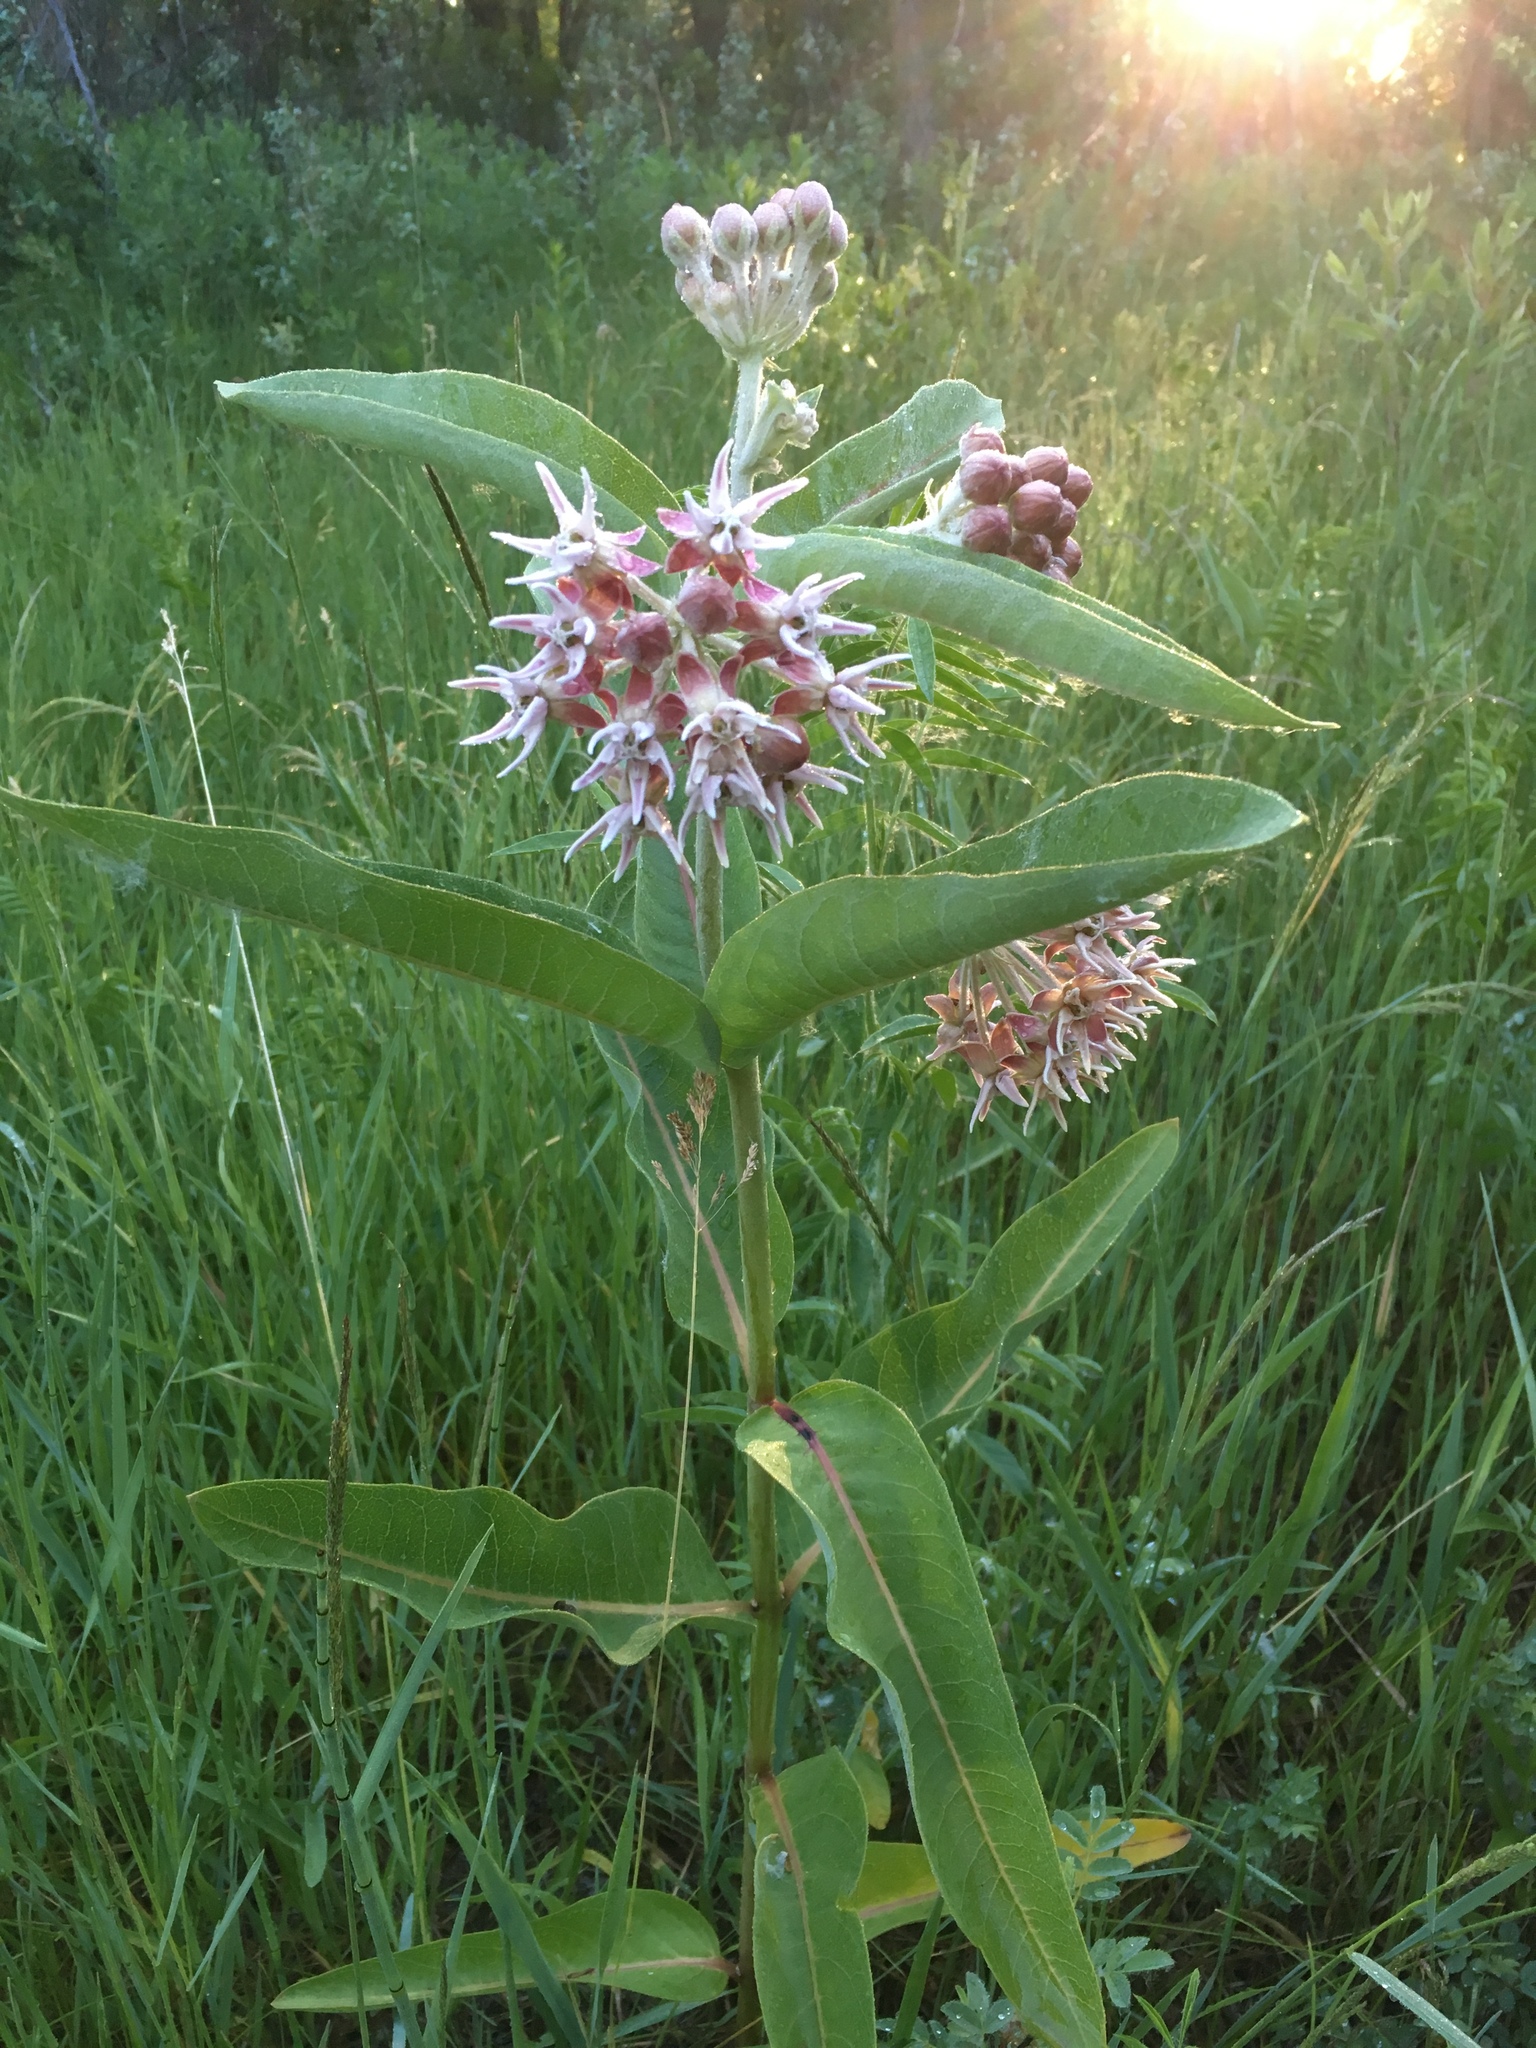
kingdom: Plantae
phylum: Tracheophyta
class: Magnoliopsida
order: Gentianales
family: Apocynaceae
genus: Asclepias
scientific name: Asclepias speciosa
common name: Showy milkweed
